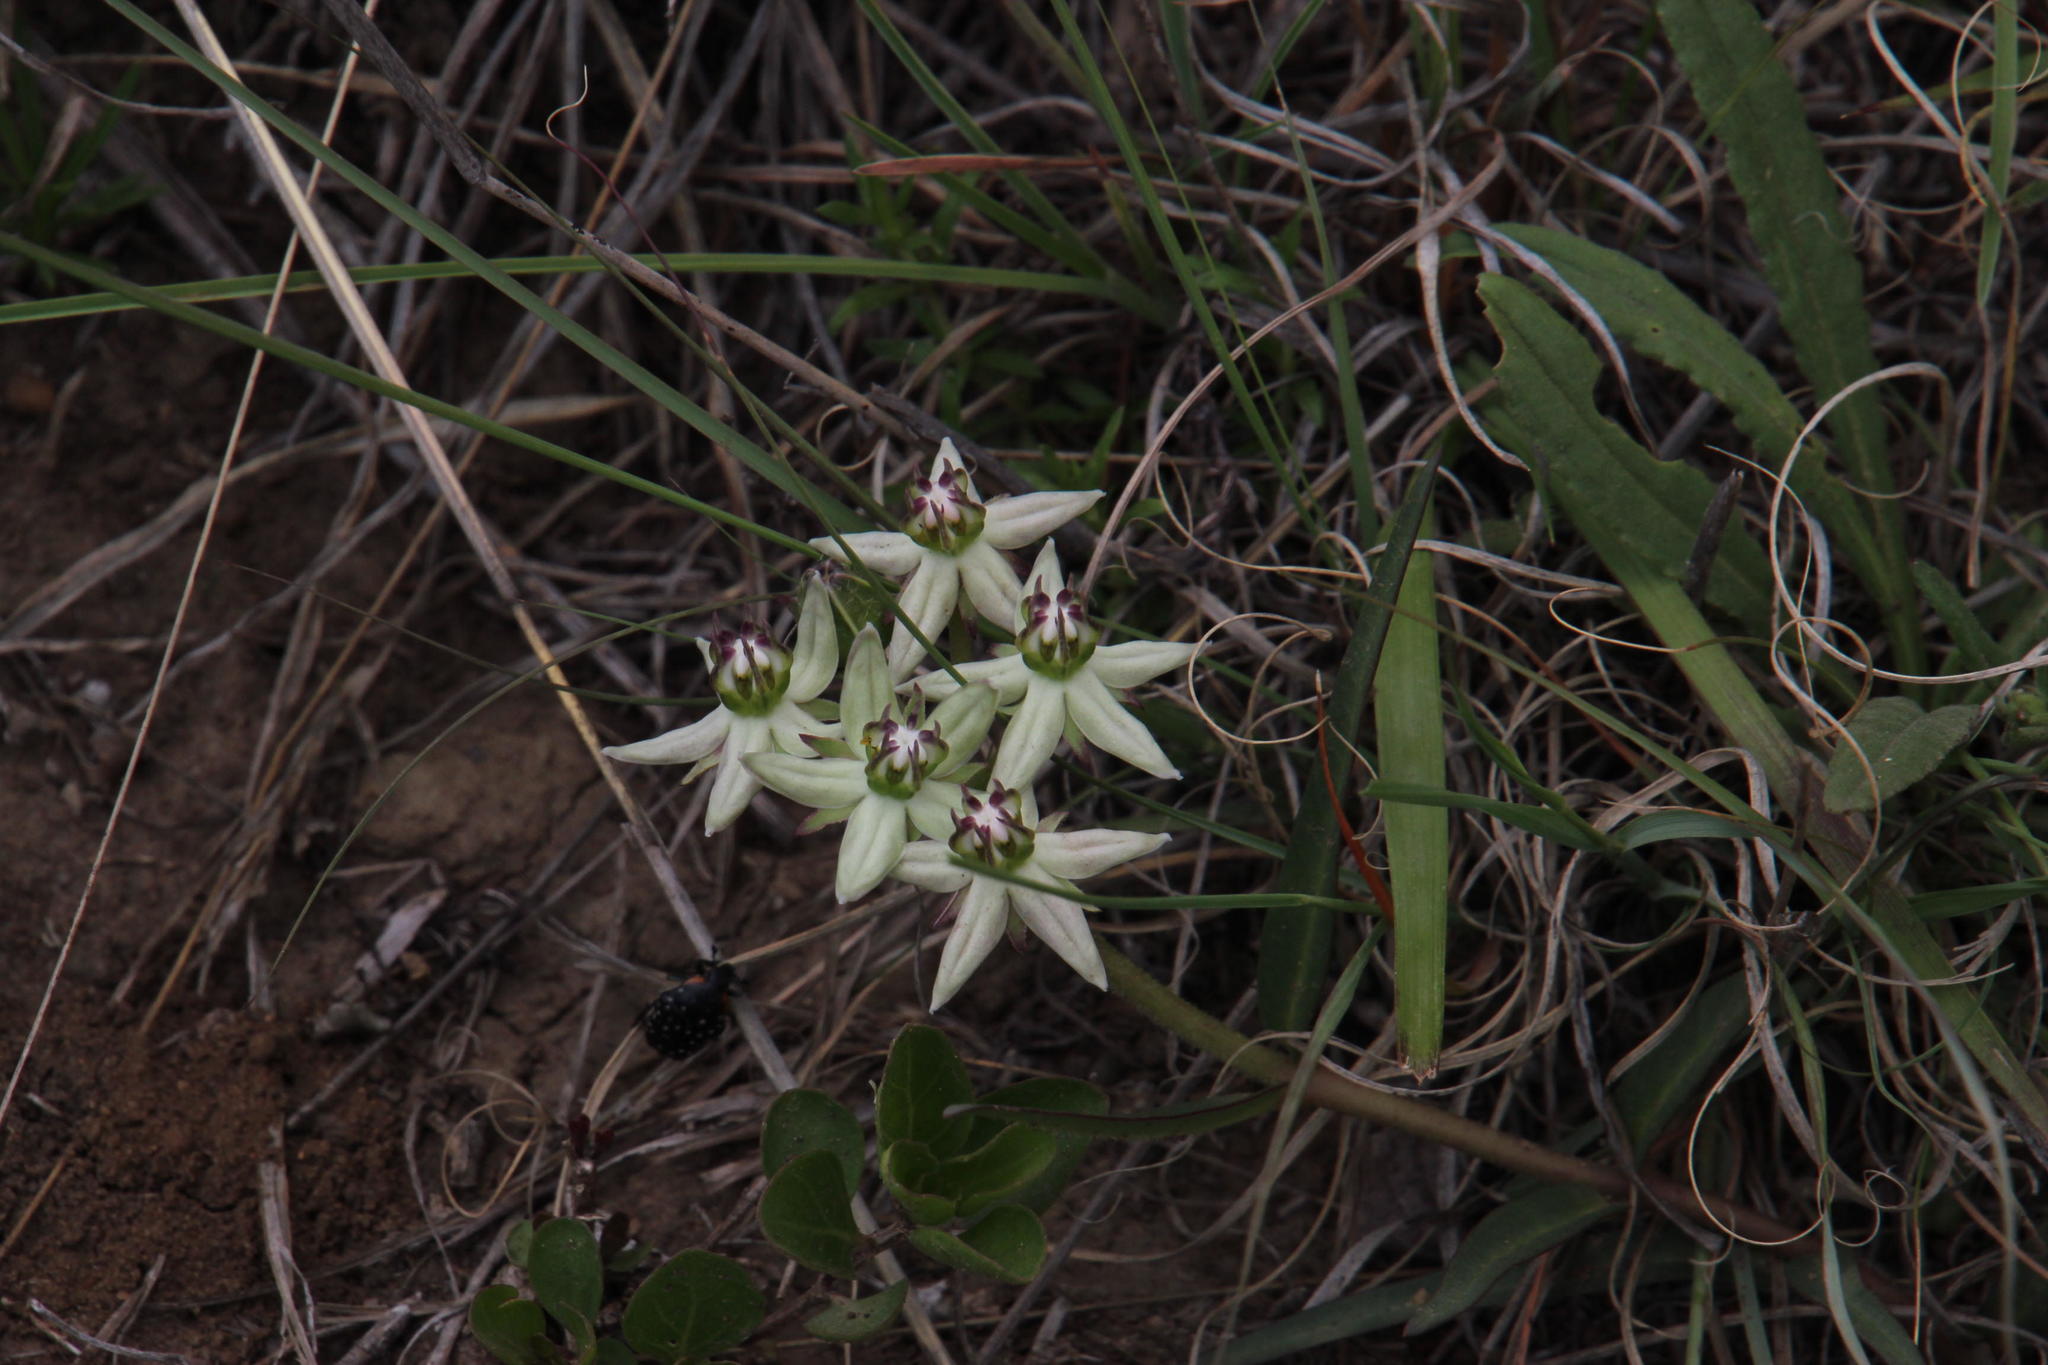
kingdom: Plantae
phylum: Tracheophyta
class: Magnoliopsida
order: Gentianales
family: Apocynaceae
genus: Asclepias
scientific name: Asclepias gibba
